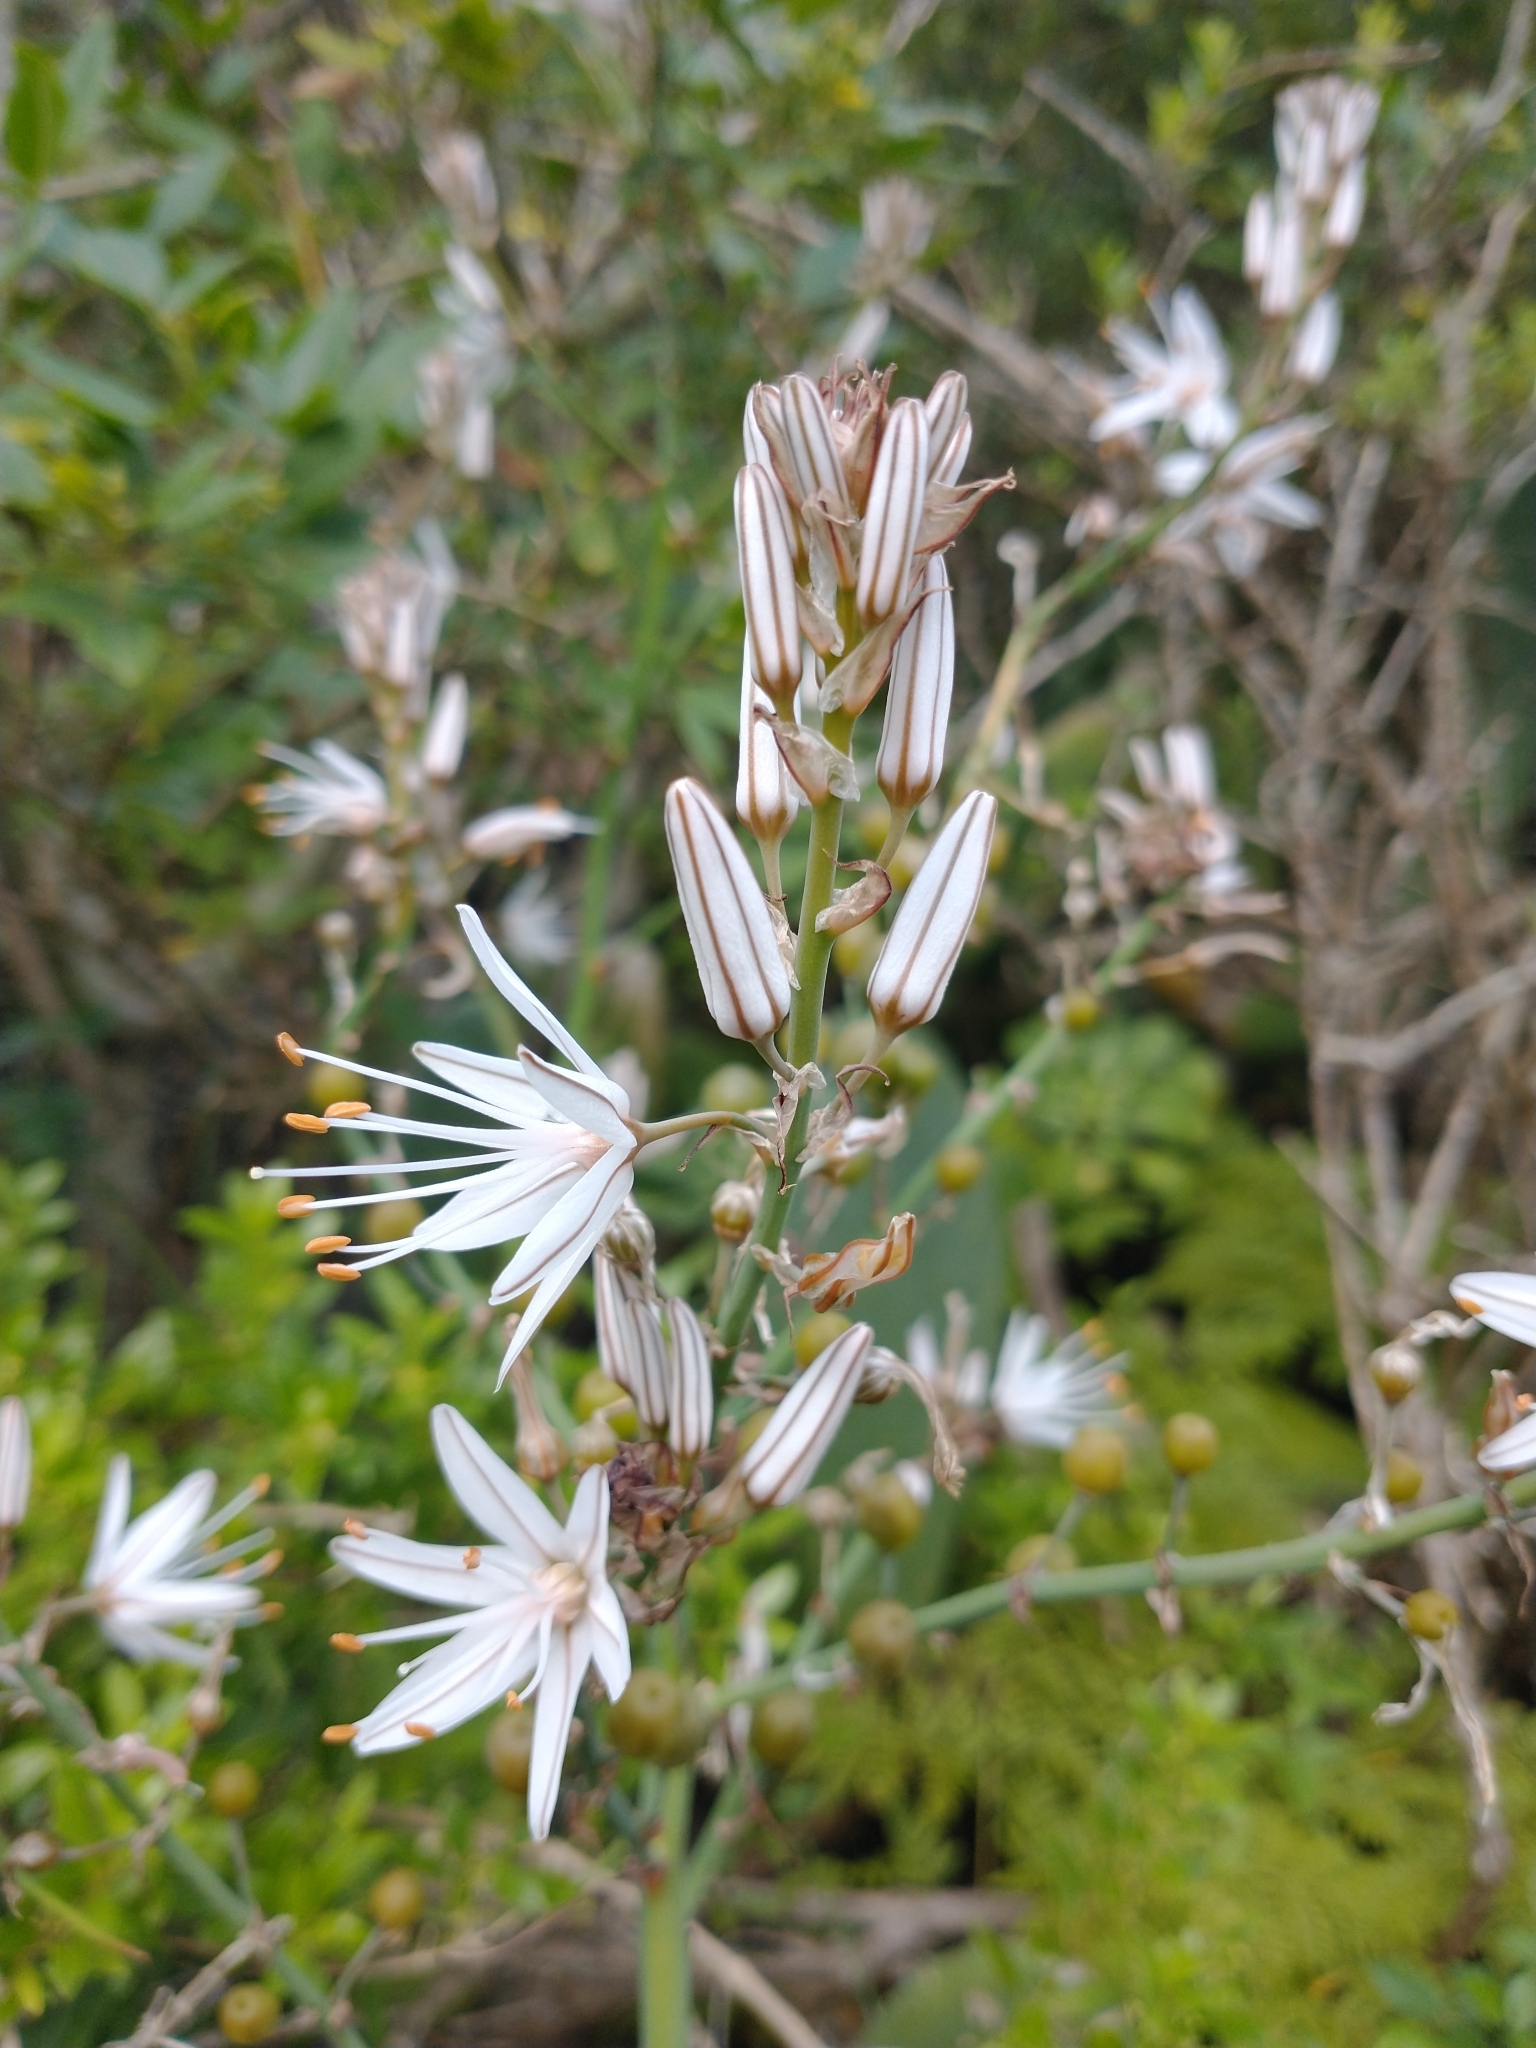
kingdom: Plantae
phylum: Tracheophyta
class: Liliopsida
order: Asparagales
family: Asphodelaceae
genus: Asphodelus
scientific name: Asphodelus ramosus
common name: Silverrod
